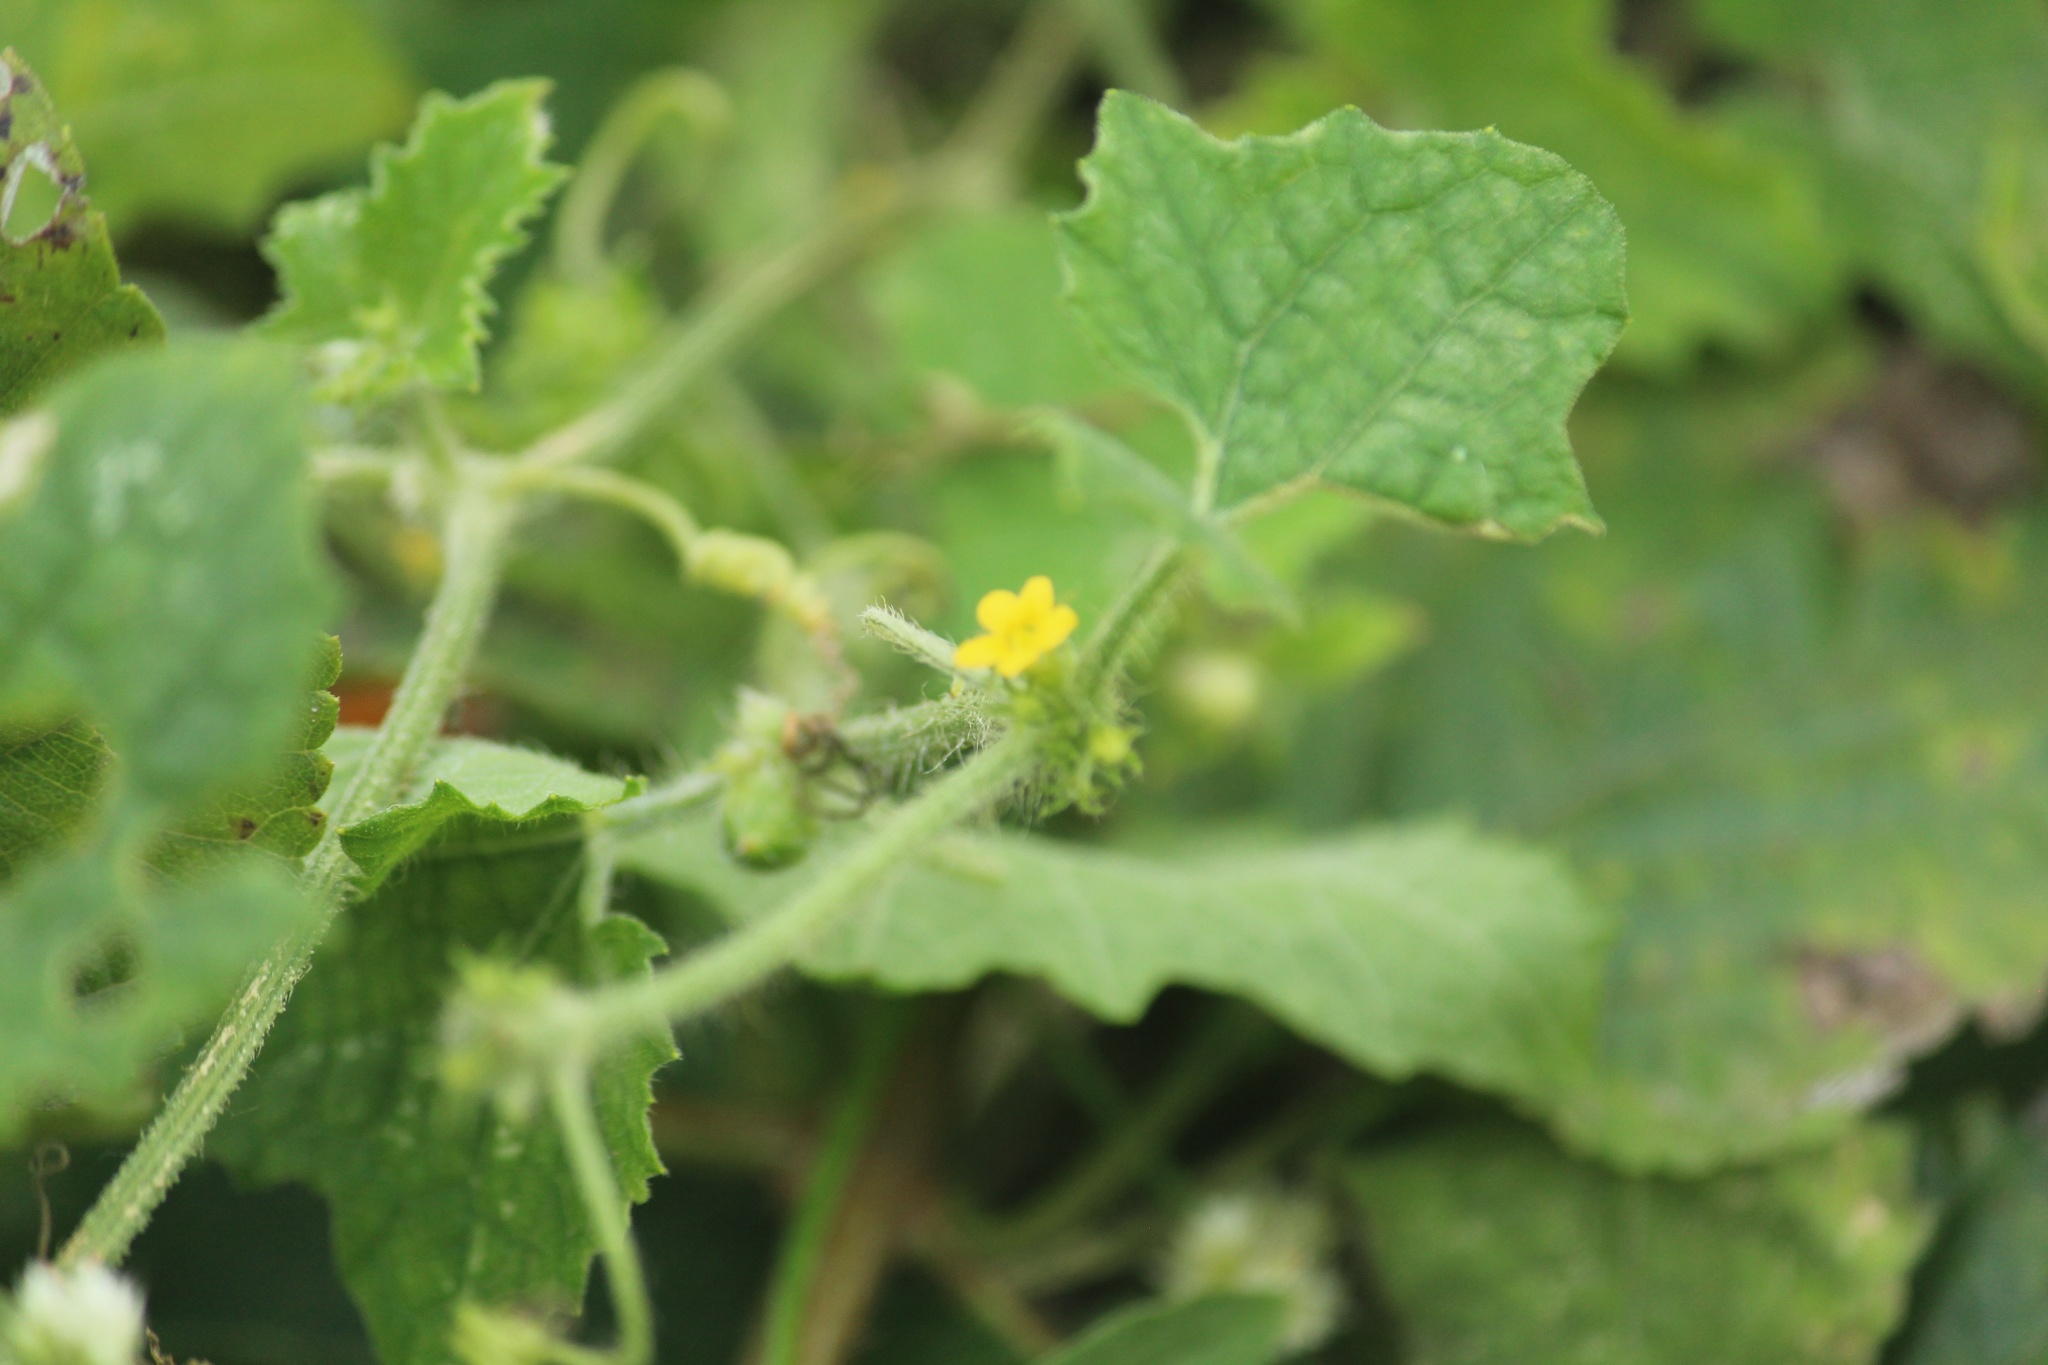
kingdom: Plantae
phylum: Tracheophyta
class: Magnoliopsida
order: Cucurbitales
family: Cucurbitaceae
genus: Cucumis
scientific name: Cucumis maderaspatanus
